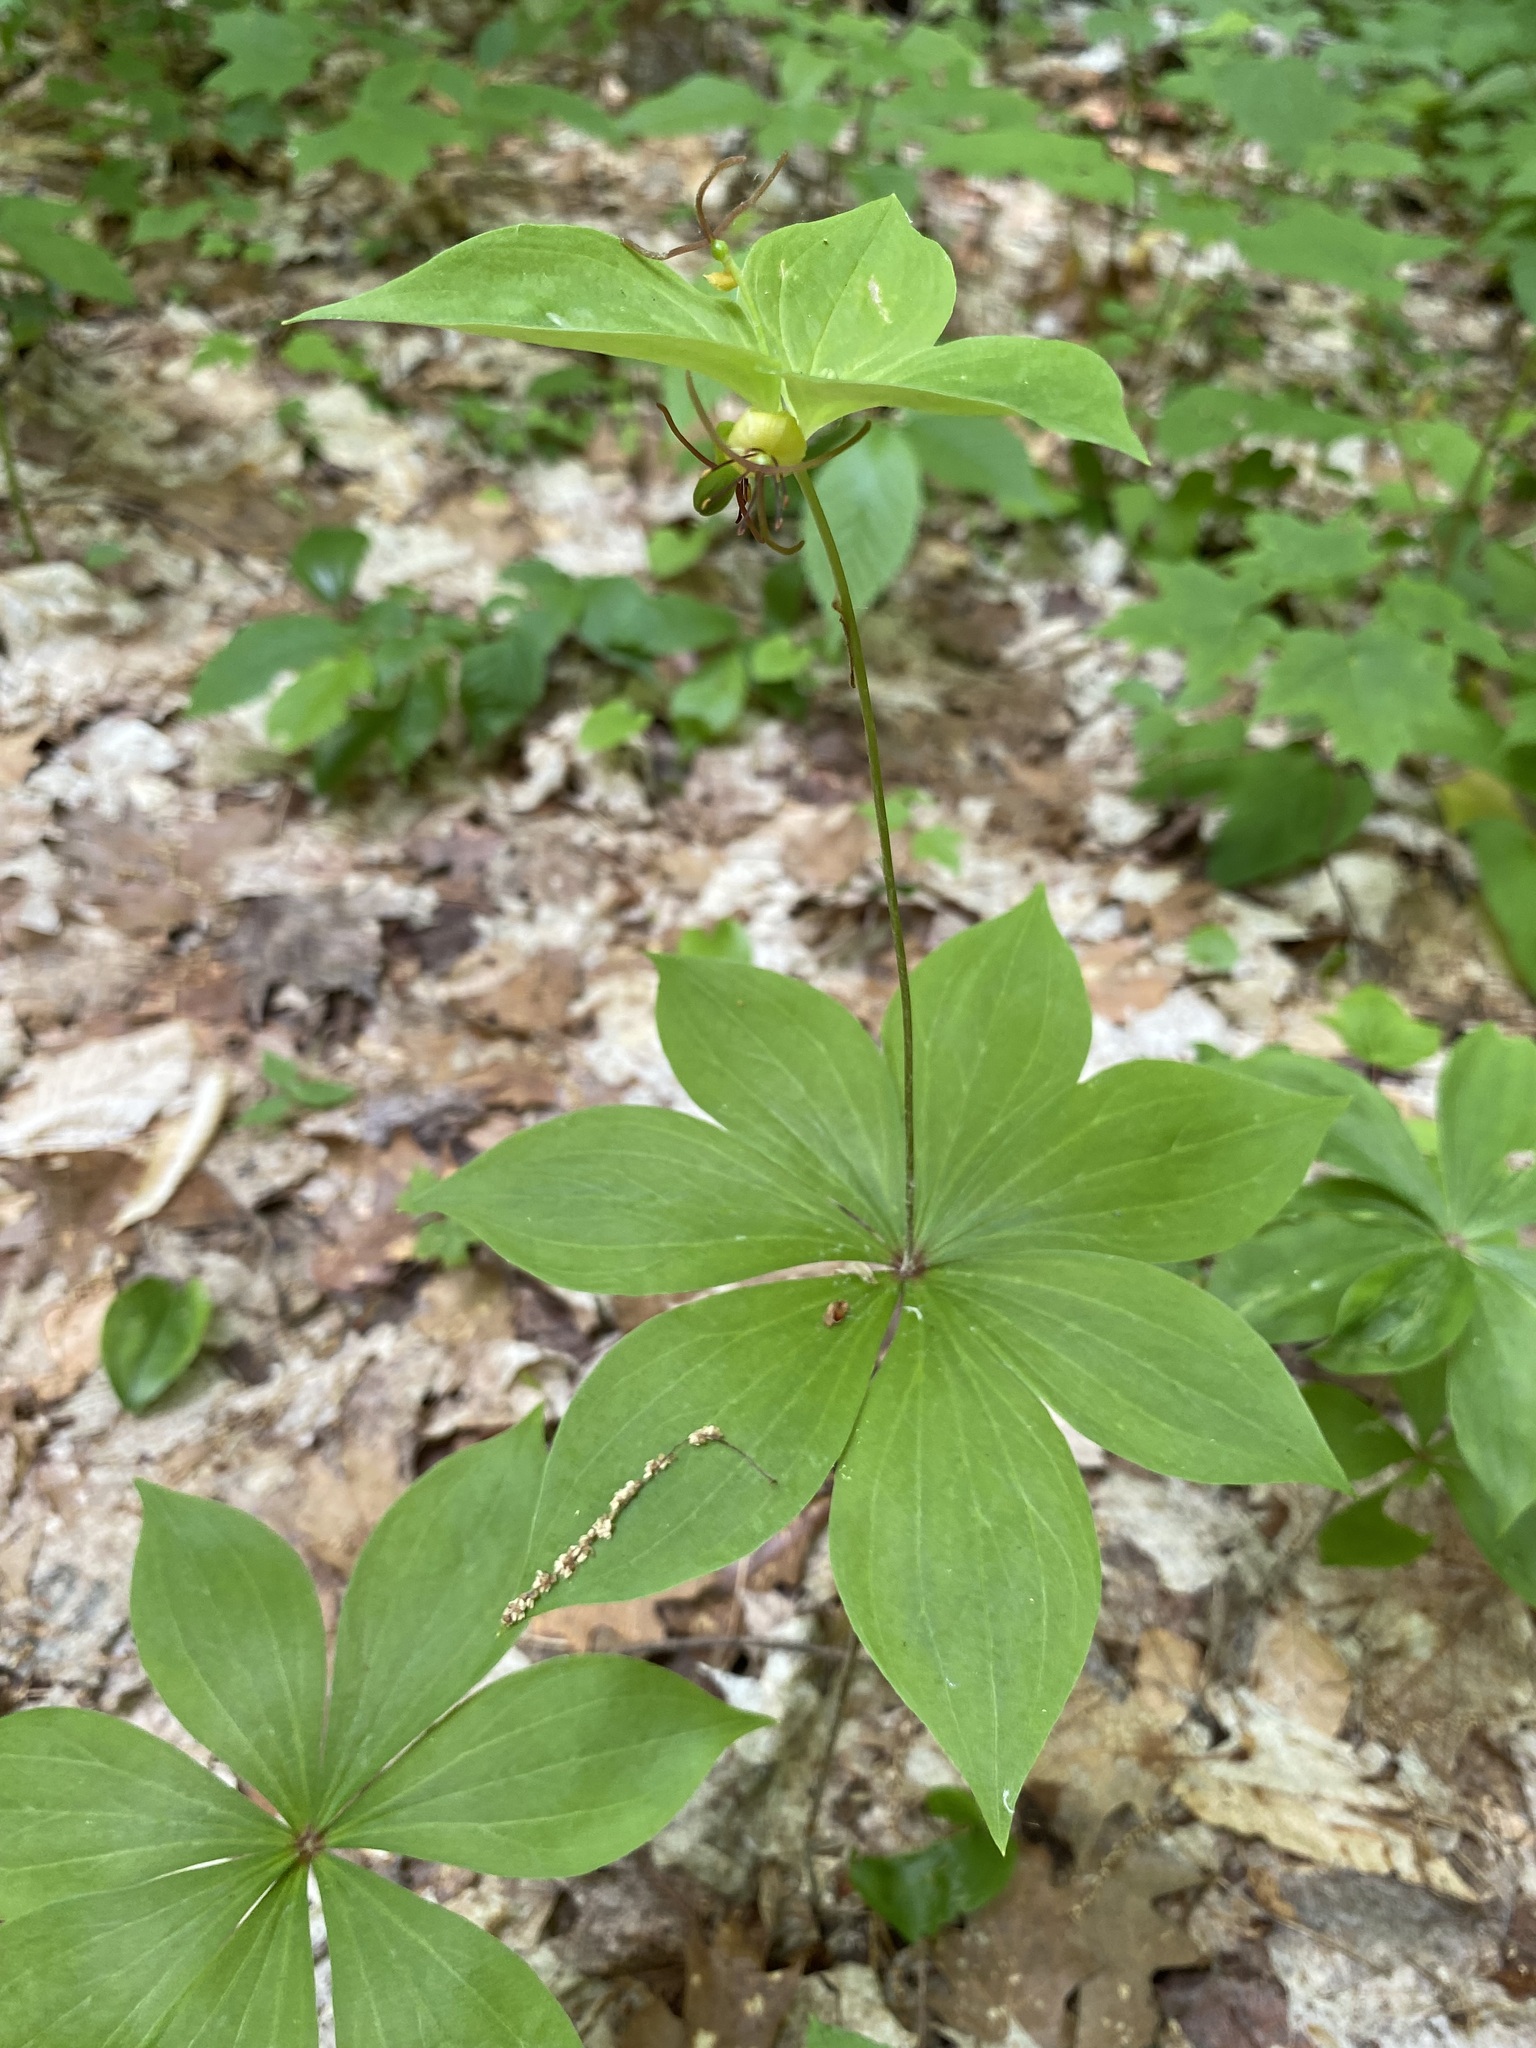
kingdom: Plantae
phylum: Tracheophyta
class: Liliopsida
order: Liliales
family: Liliaceae
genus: Medeola
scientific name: Medeola virginiana
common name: Indian cucumber-root
